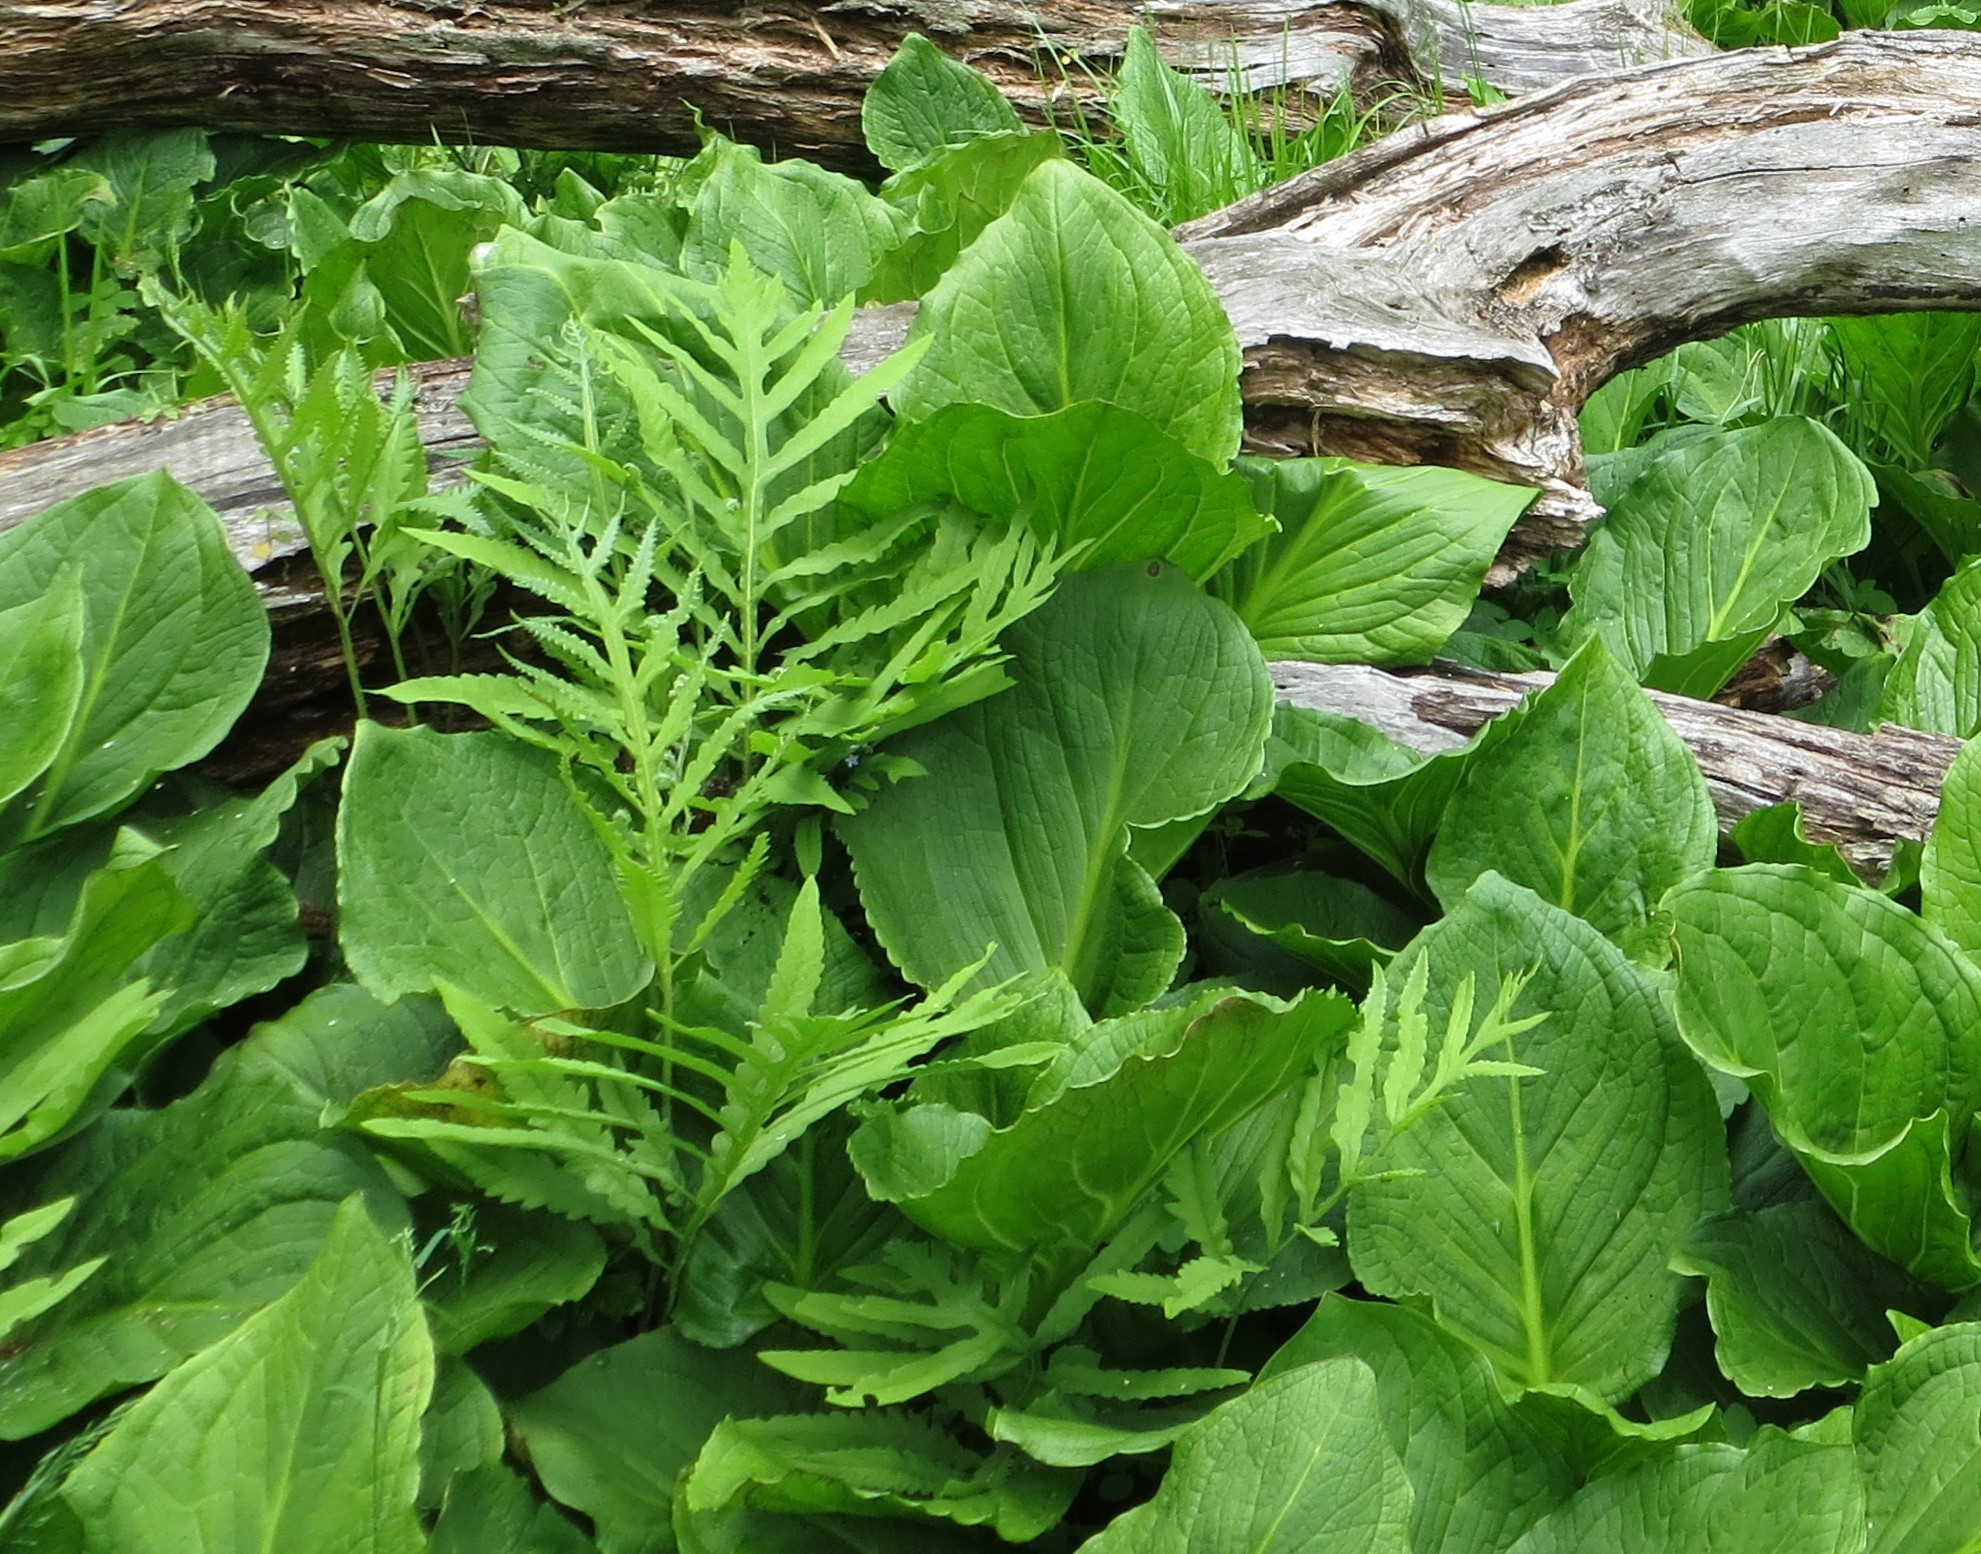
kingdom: Plantae
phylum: Tracheophyta
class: Polypodiopsida
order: Polypodiales
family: Onocleaceae
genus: Onoclea
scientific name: Onoclea sensibilis
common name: Sensitive fern
